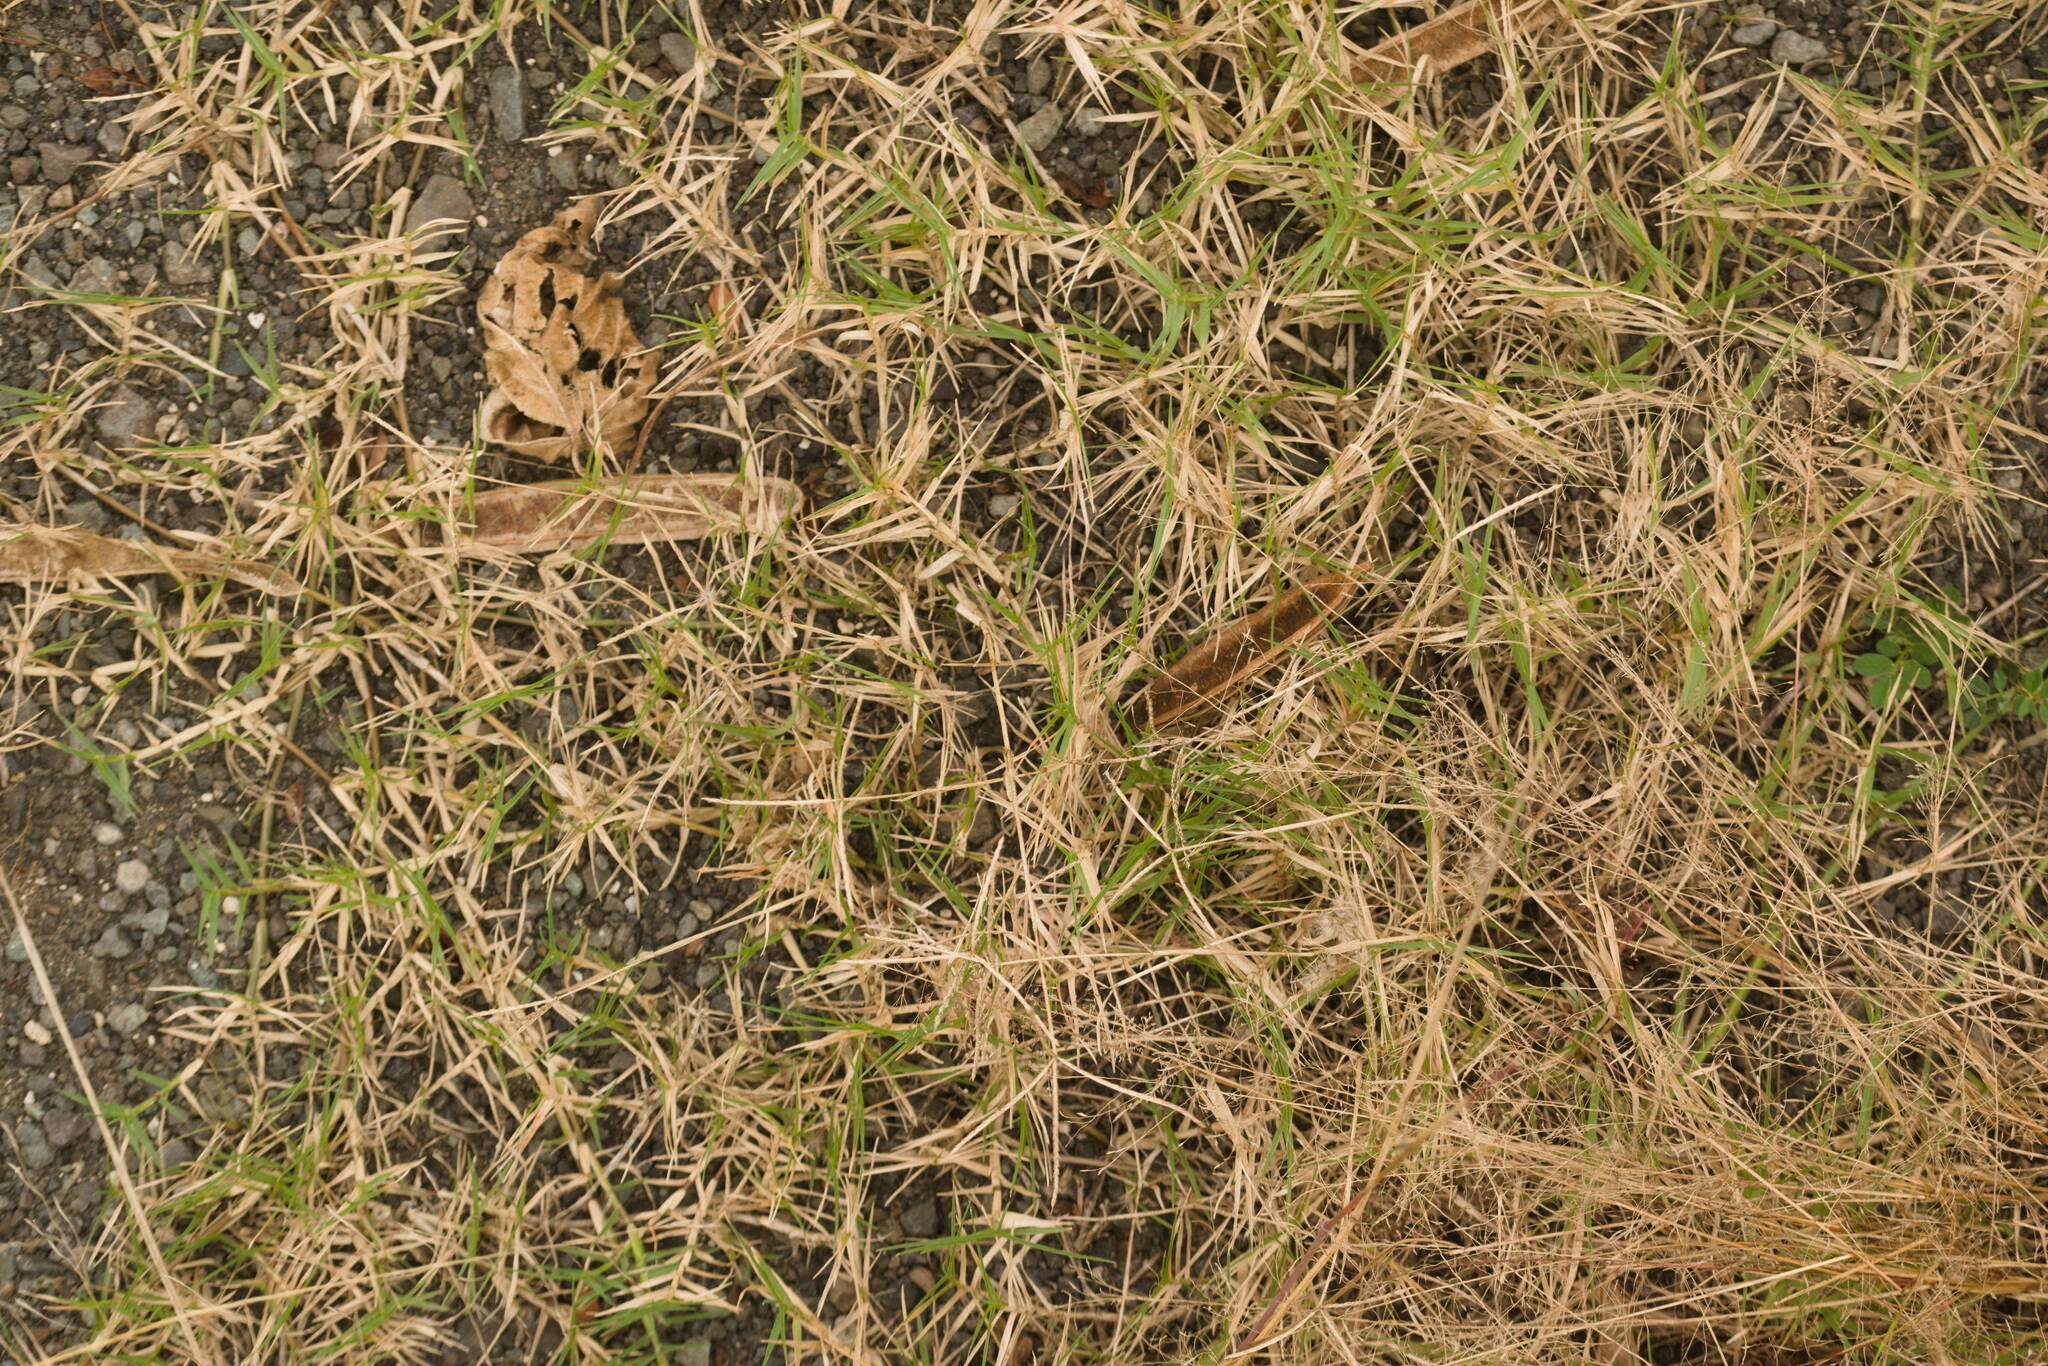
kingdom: Plantae
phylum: Tracheophyta
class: Liliopsida
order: Poales
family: Poaceae
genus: Cynodon
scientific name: Cynodon dactylon
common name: Bermuda grass
